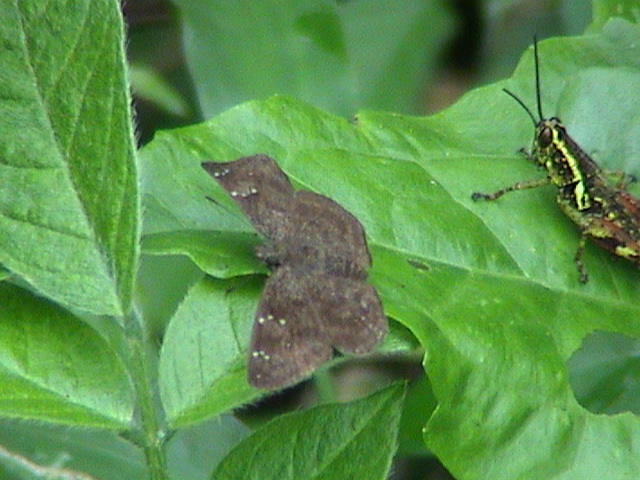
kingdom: Animalia
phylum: Arthropoda
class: Insecta
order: Lepidoptera
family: Hesperiidae
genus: Sarangesa
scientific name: Sarangesa dasahara
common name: Common small flat
